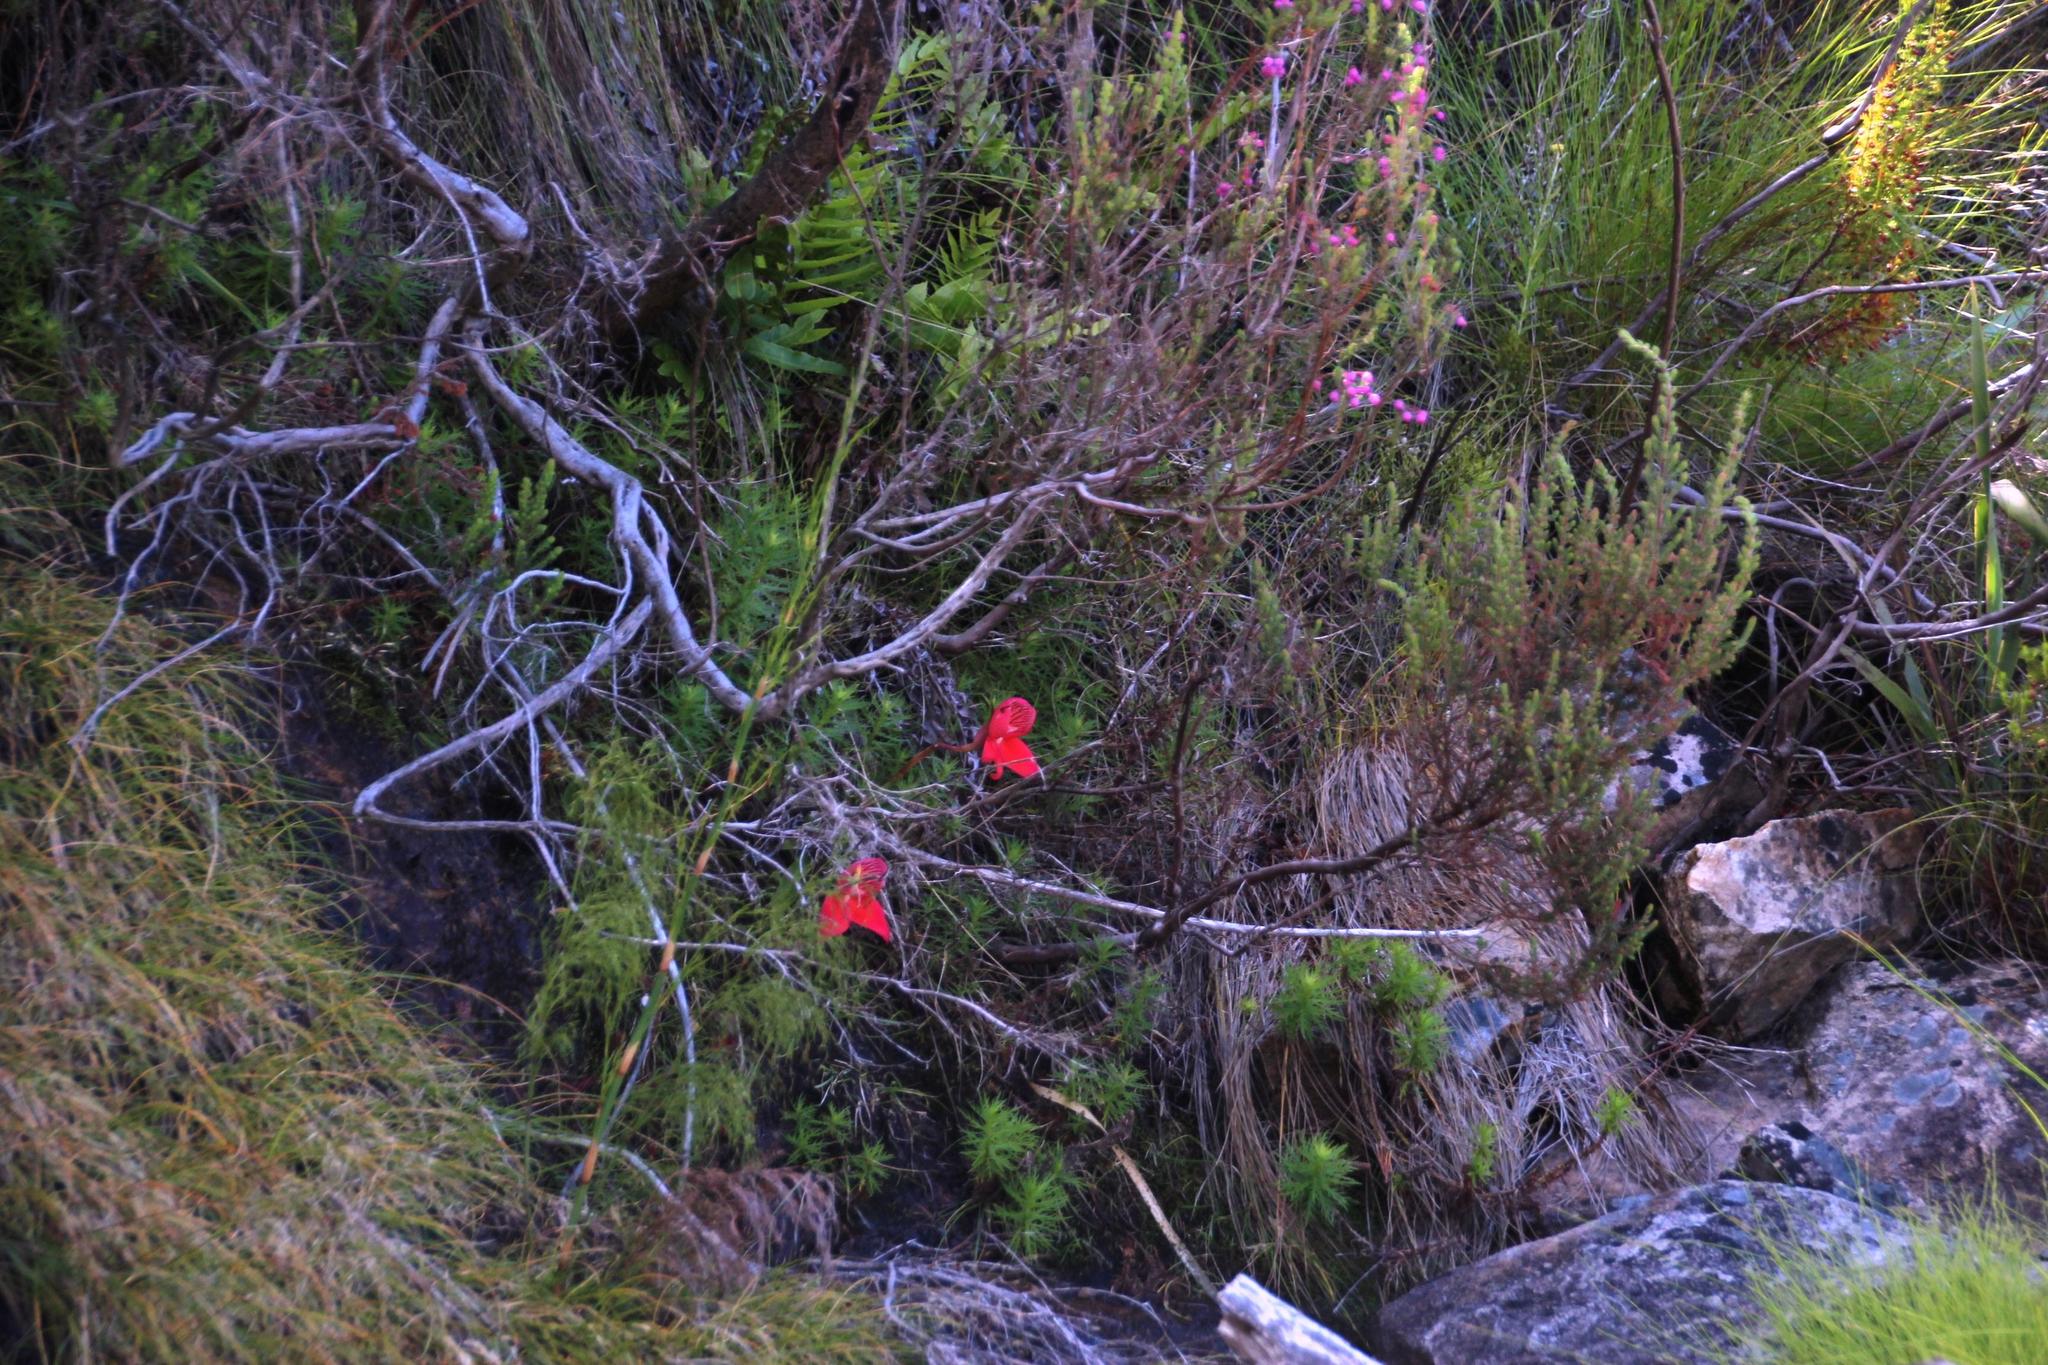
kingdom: Plantae
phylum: Tracheophyta
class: Liliopsida
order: Asparagales
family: Orchidaceae
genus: Disa
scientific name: Disa uniflora
